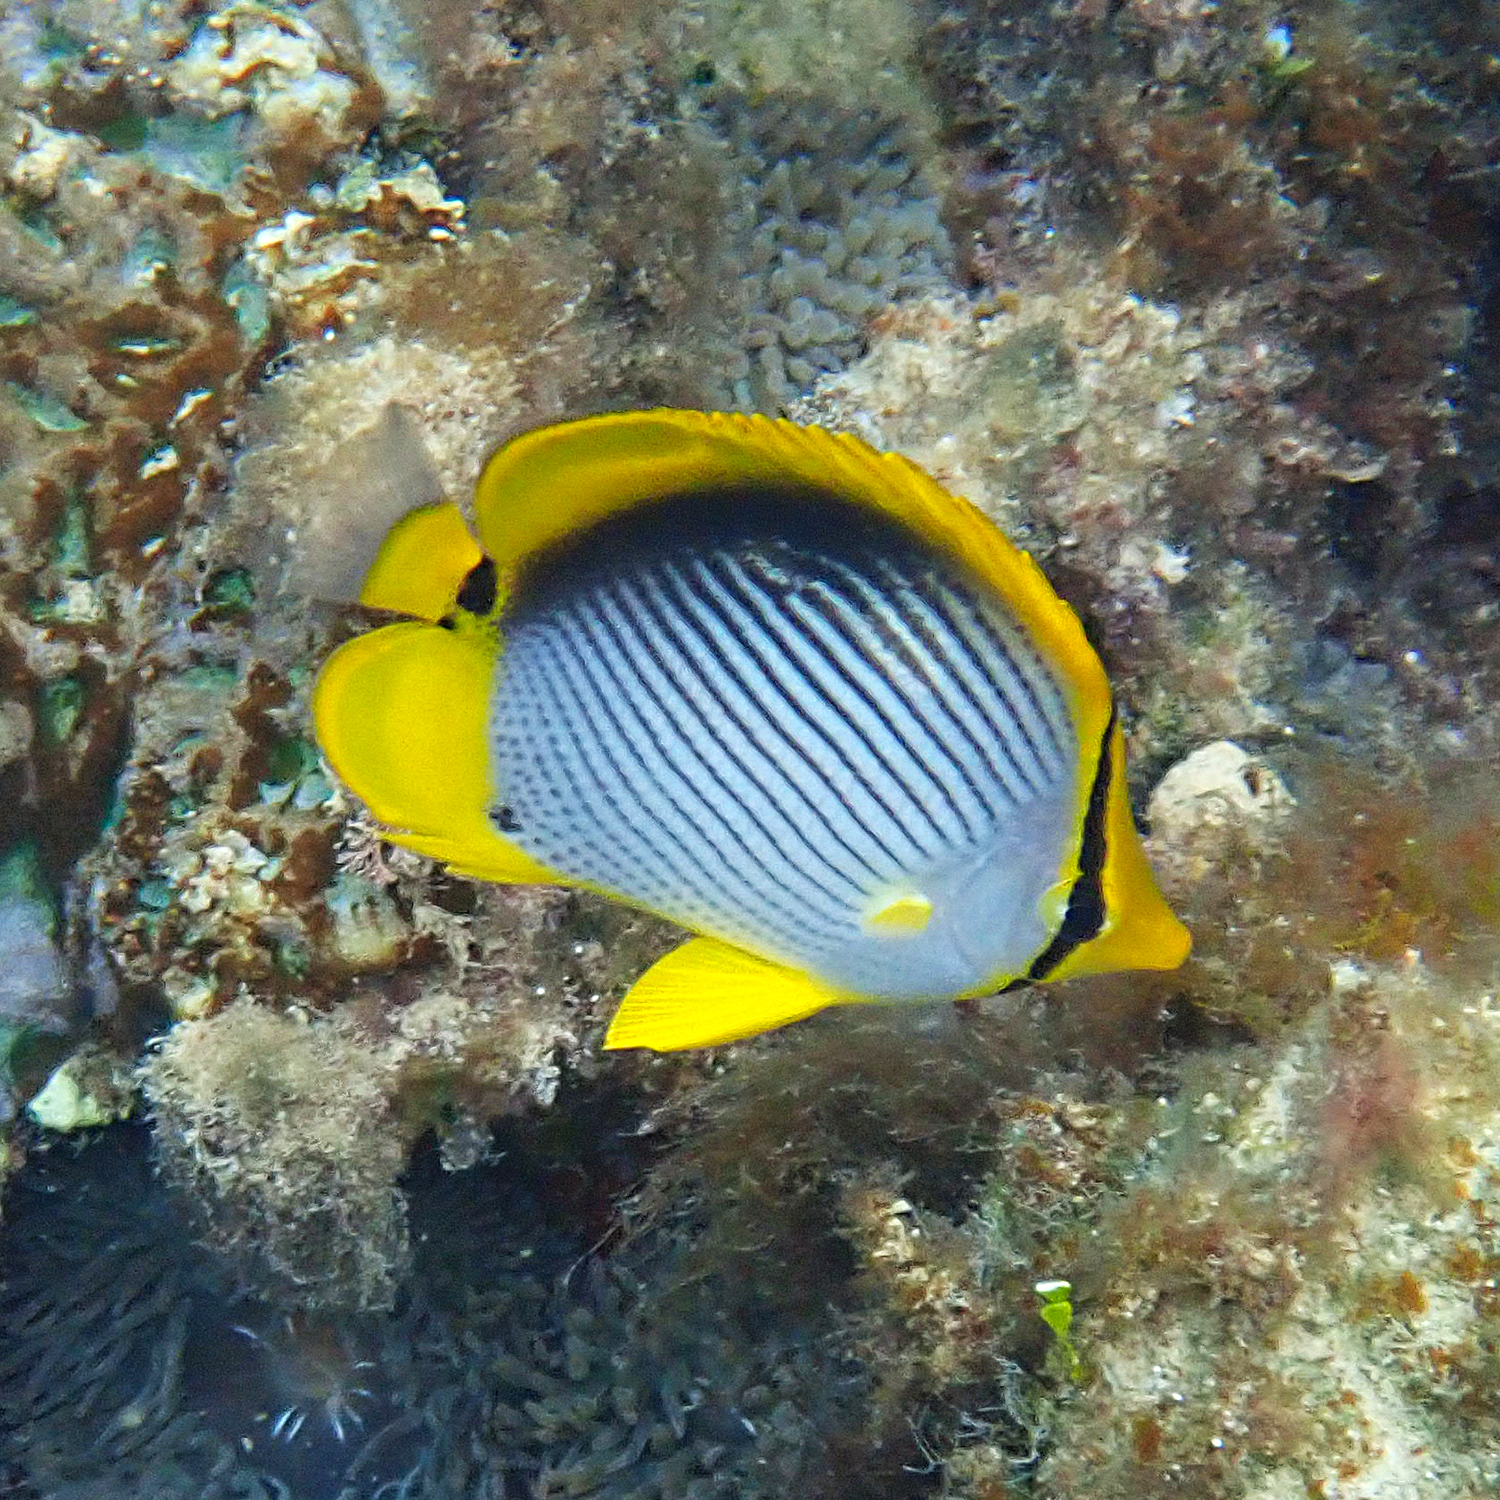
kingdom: Animalia
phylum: Chordata
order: Perciformes
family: Chaetodontidae
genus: Chaetodon
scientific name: Chaetodon melannotus
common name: Blackback butterflyfish
